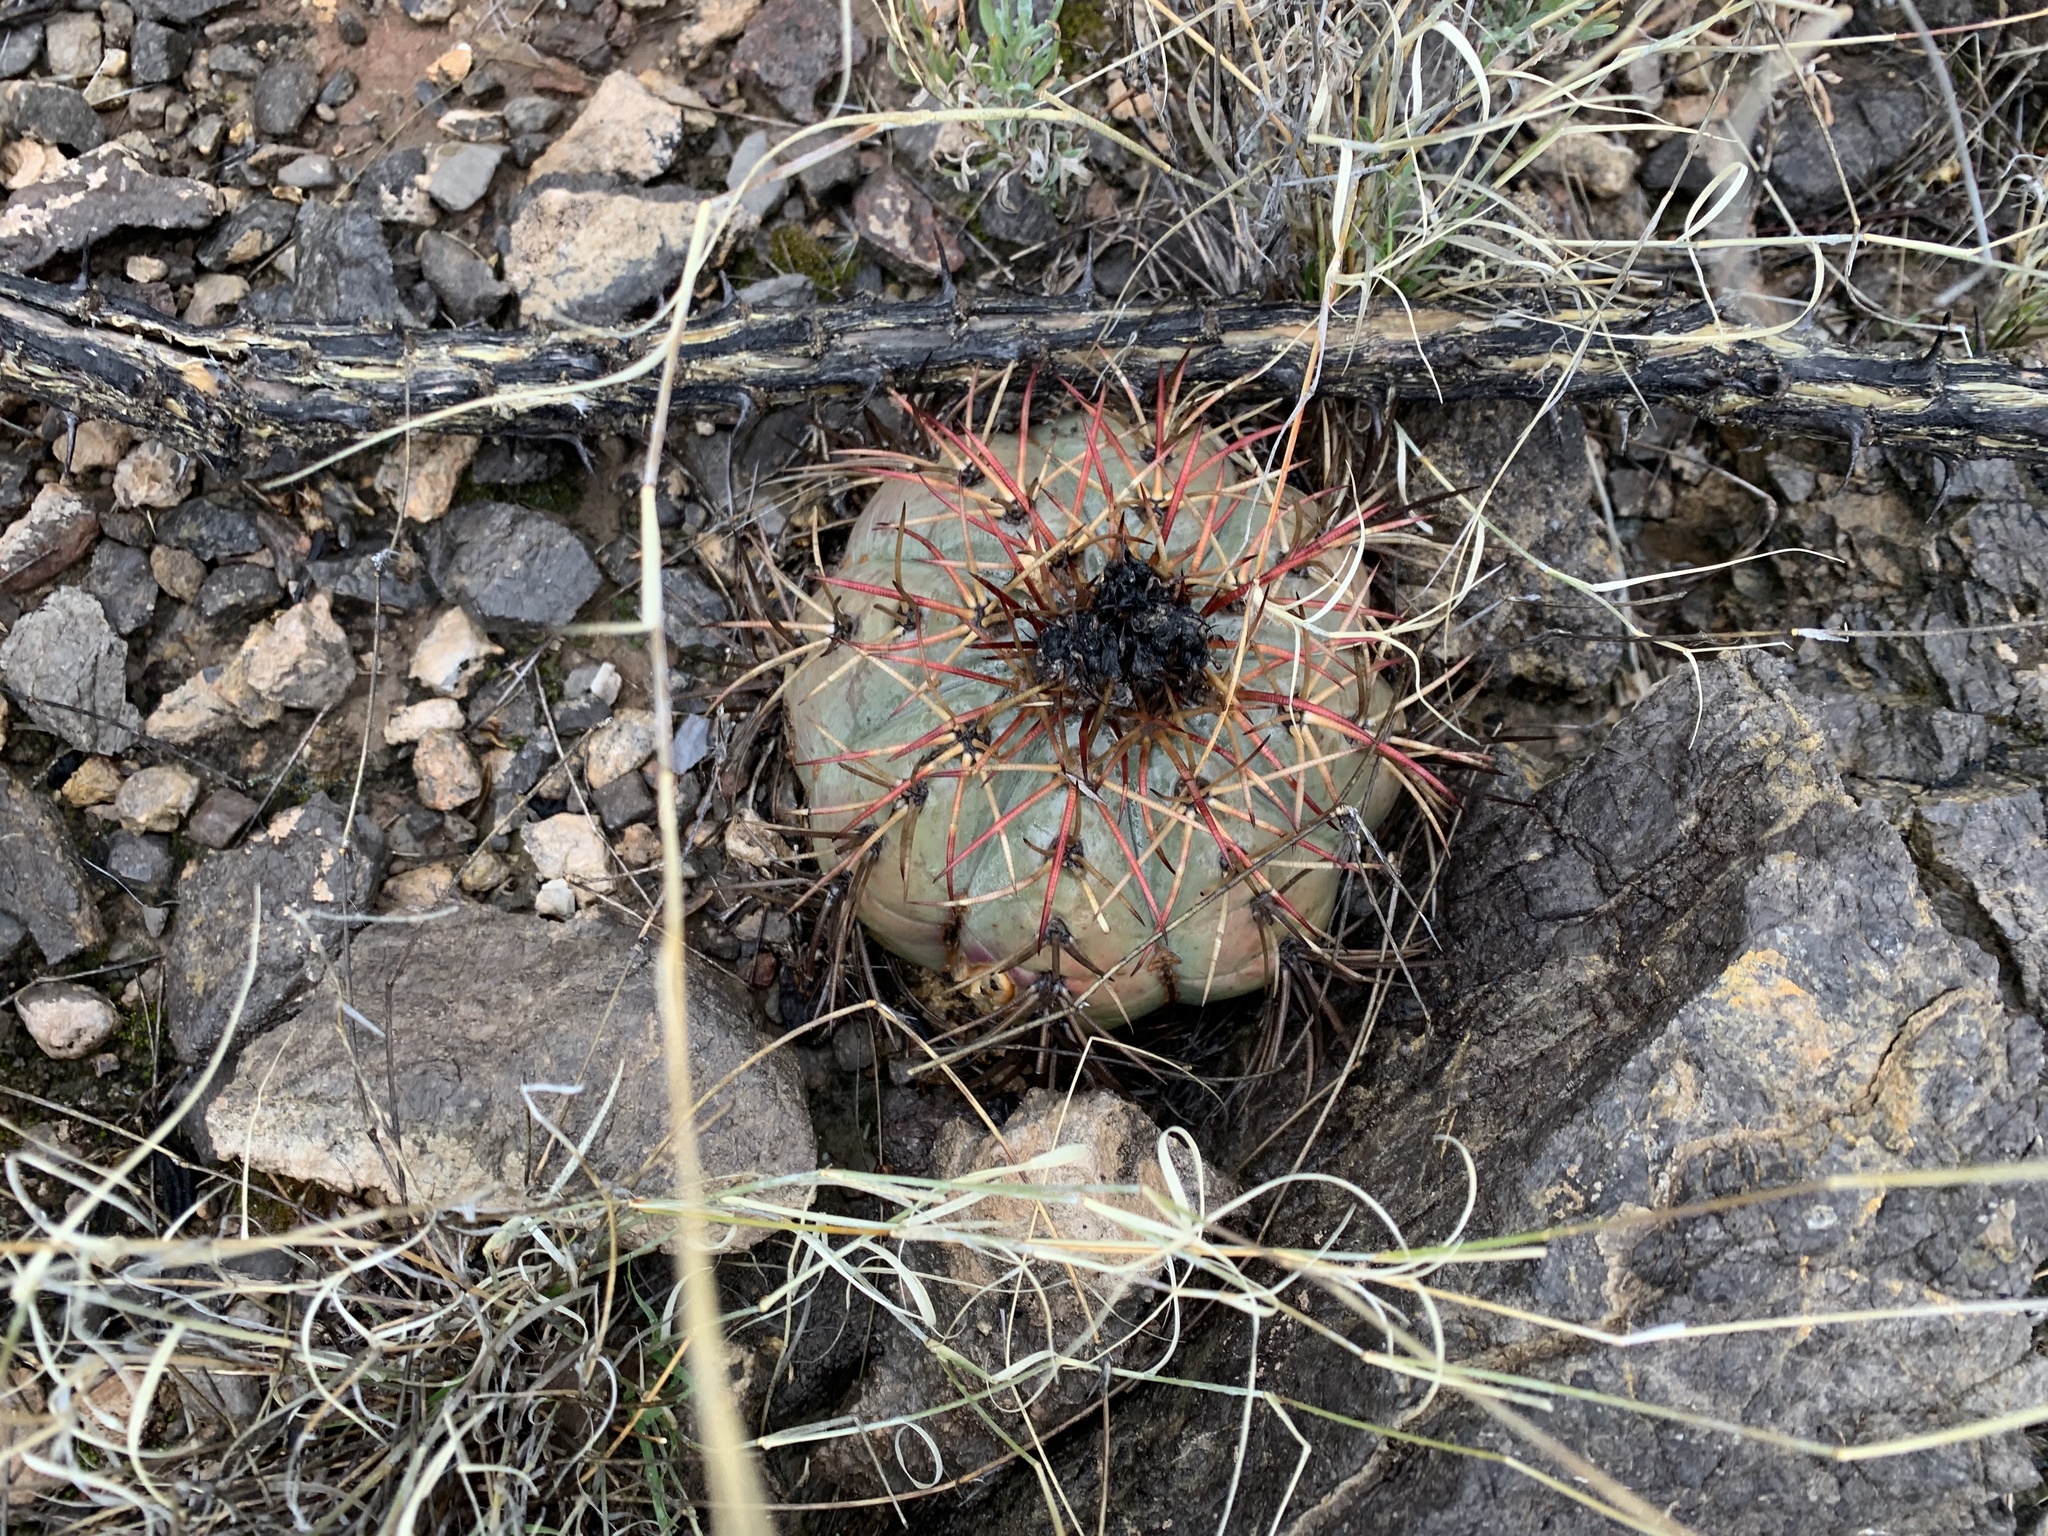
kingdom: Plantae
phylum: Tracheophyta
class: Magnoliopsida
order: Caryophyllales
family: Cactaceae
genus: Echinocactus
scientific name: Echinocactus horizonthalonius
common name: Devilshead
